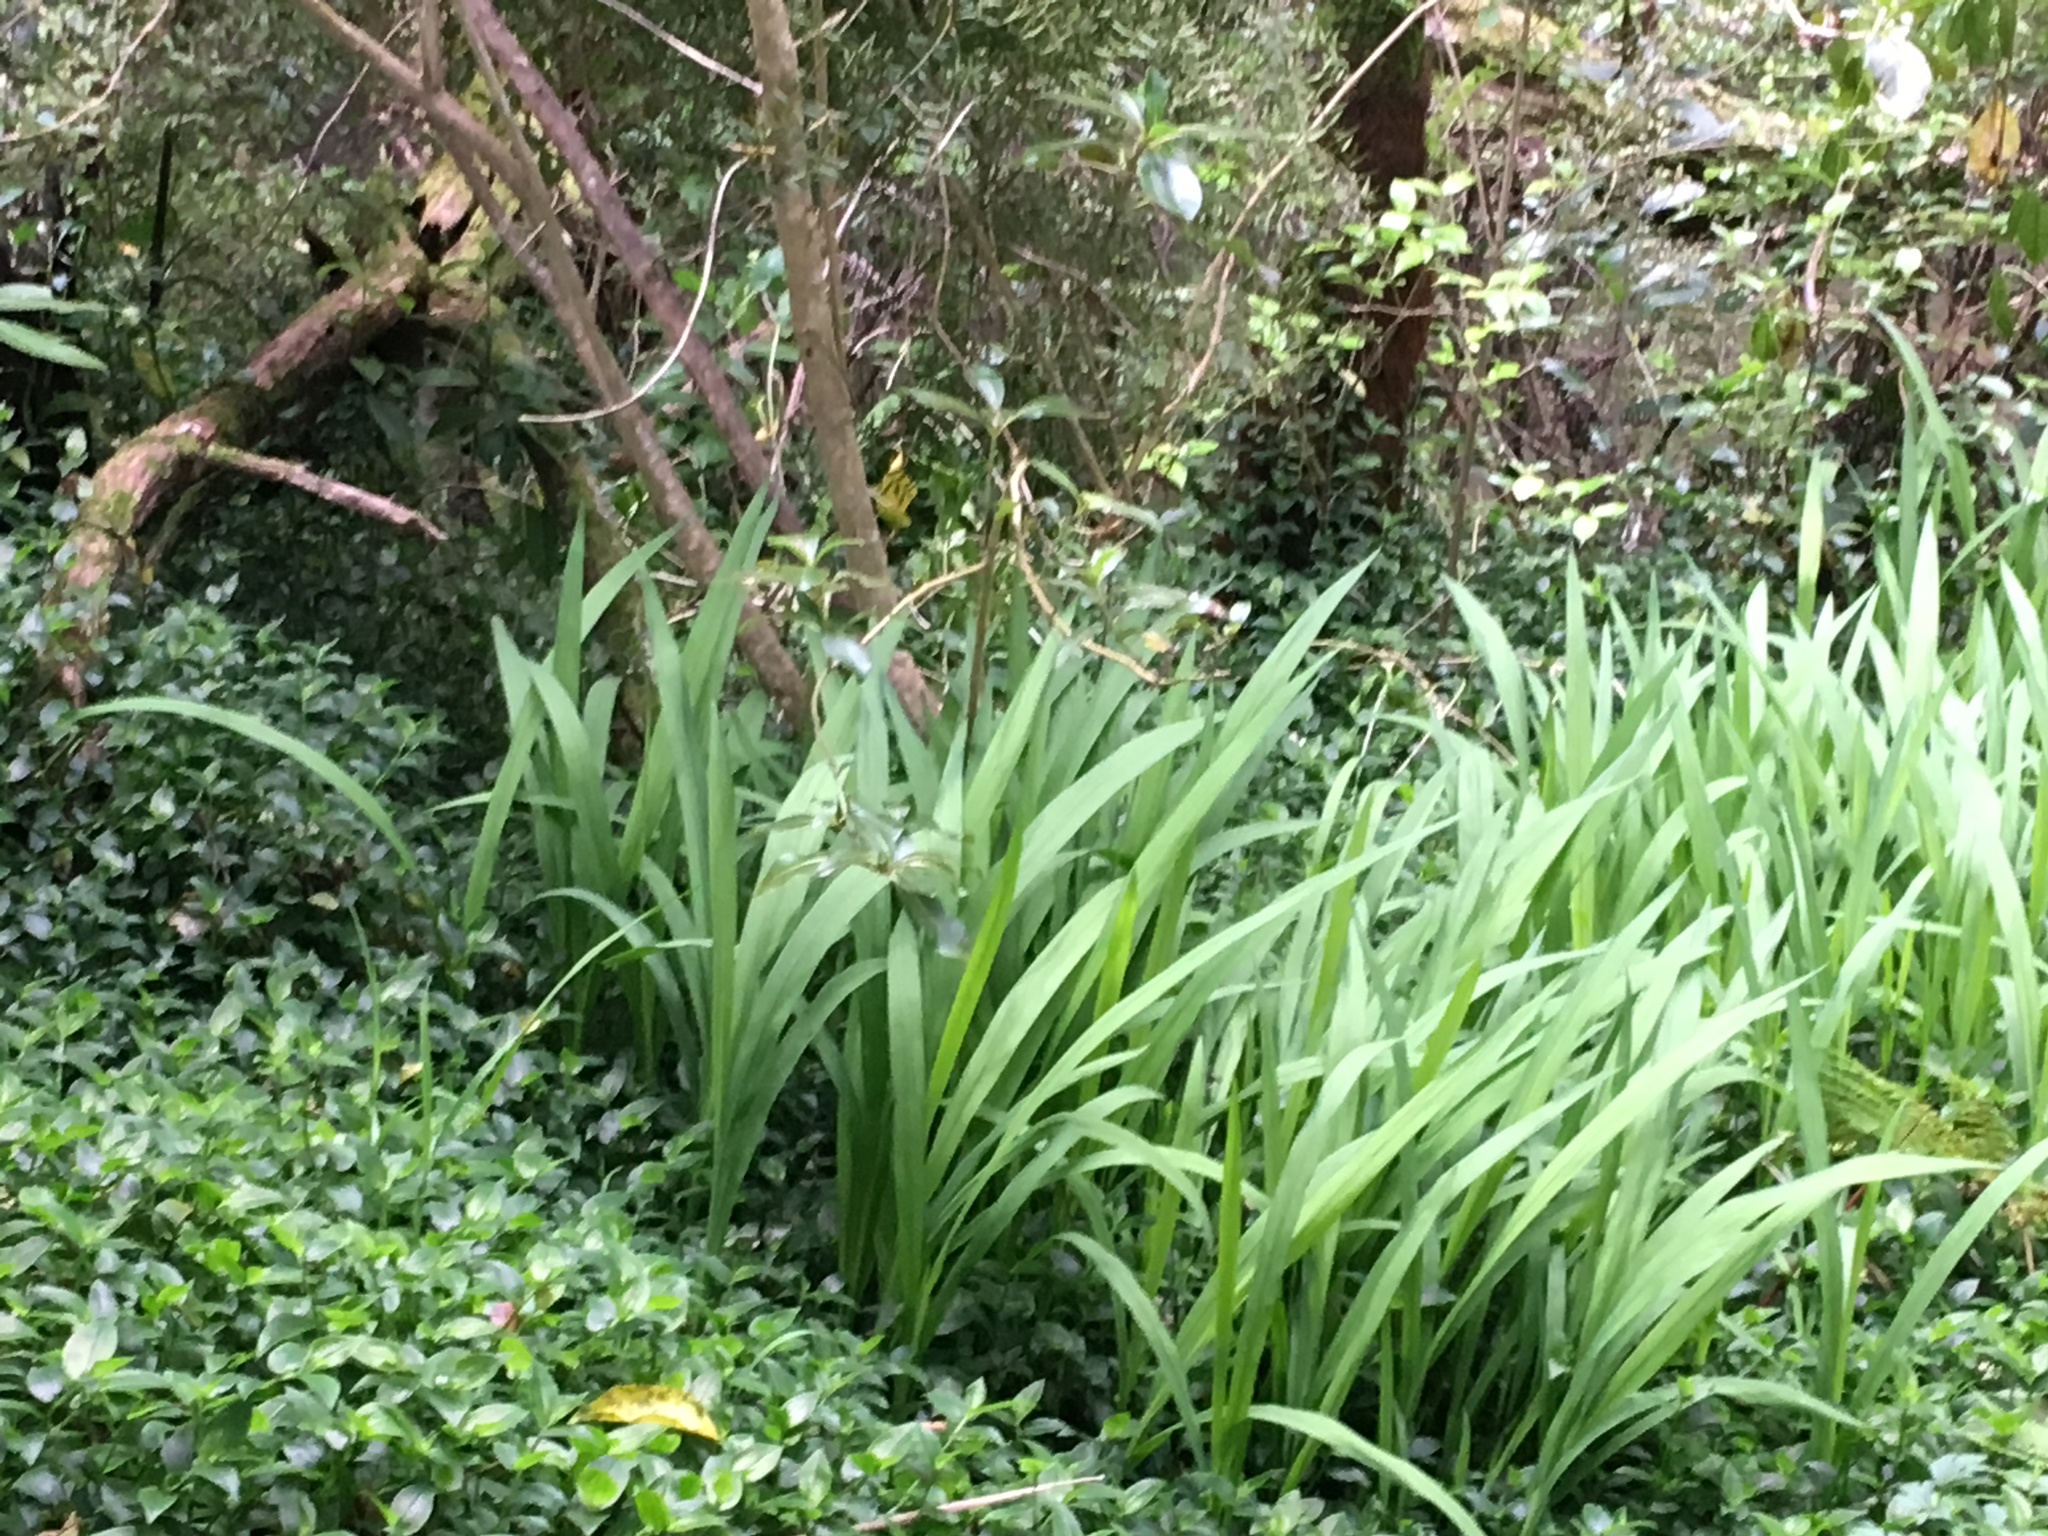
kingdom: Plantae
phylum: Tracheophyta
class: Liliopsida
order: Asparagales
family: Iridaceae
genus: Crocosmia
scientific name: Crocosmia crocosmiiflora
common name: Montbretia
